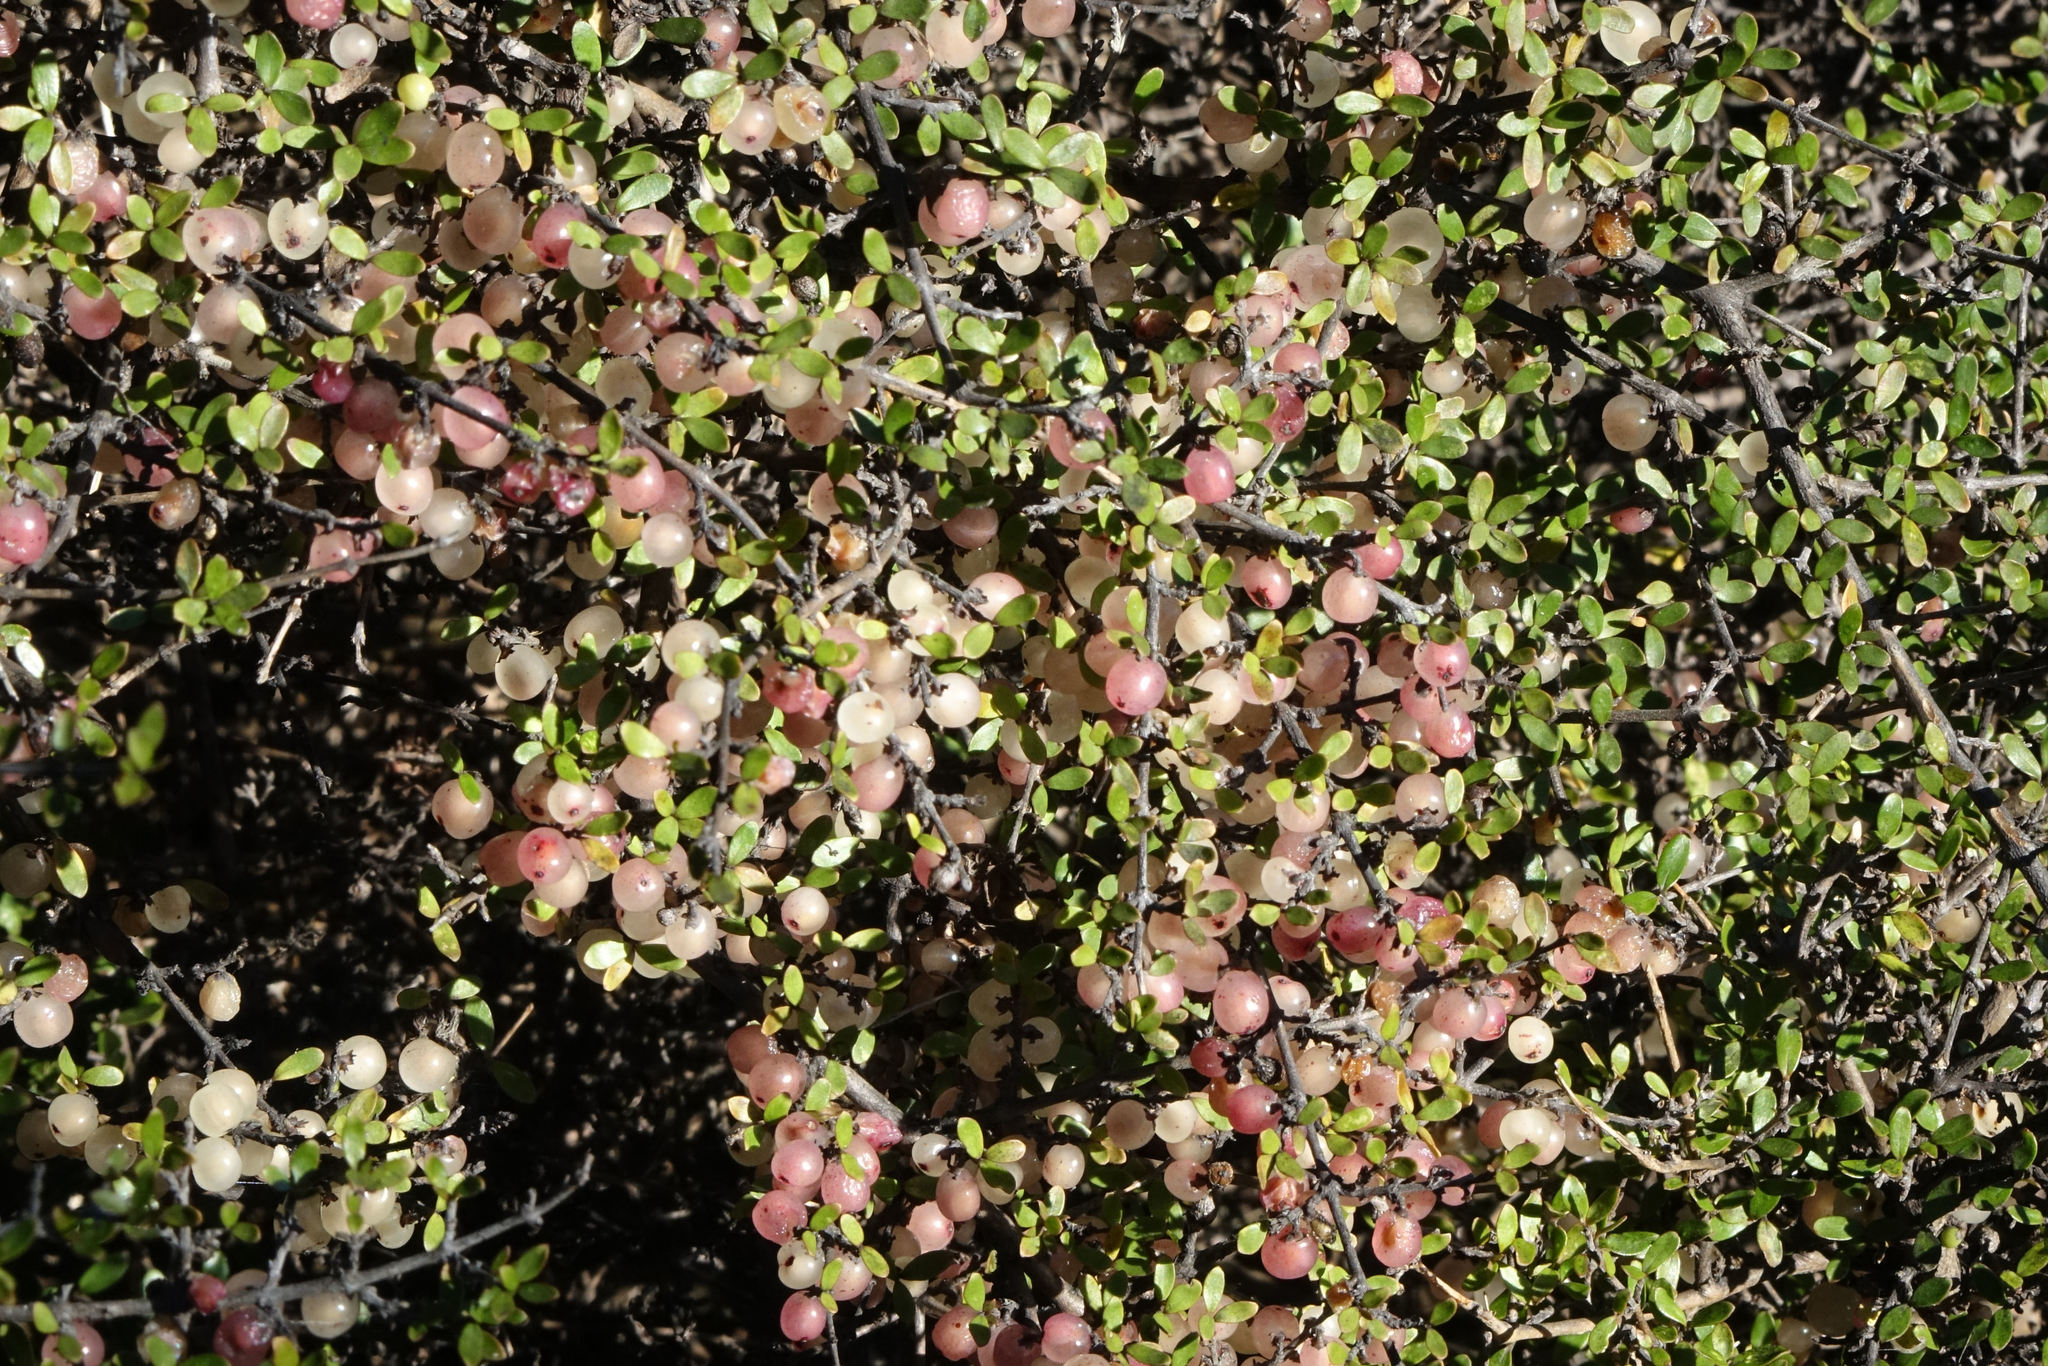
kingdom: Plantae
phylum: Tracheophyta
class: Magnoliopsida
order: Gentianales
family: Rubiaceae
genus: Coprosma
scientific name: Coprosma dumosa
